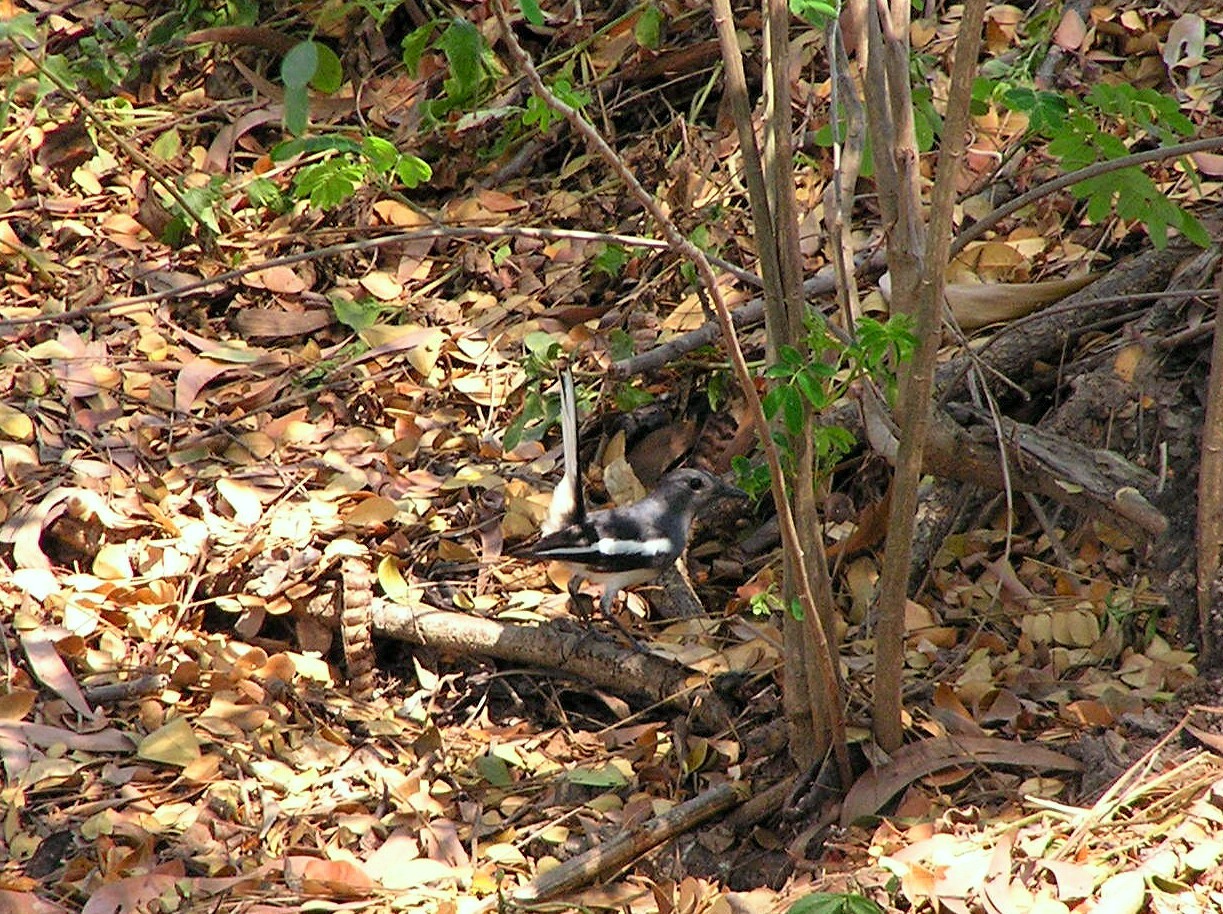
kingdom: Animalia
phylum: Chordata
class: Aves
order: Passeriformes
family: Muscicapidae
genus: Copsychus
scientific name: Copsychus saularis
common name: Oriental magpie-robin
